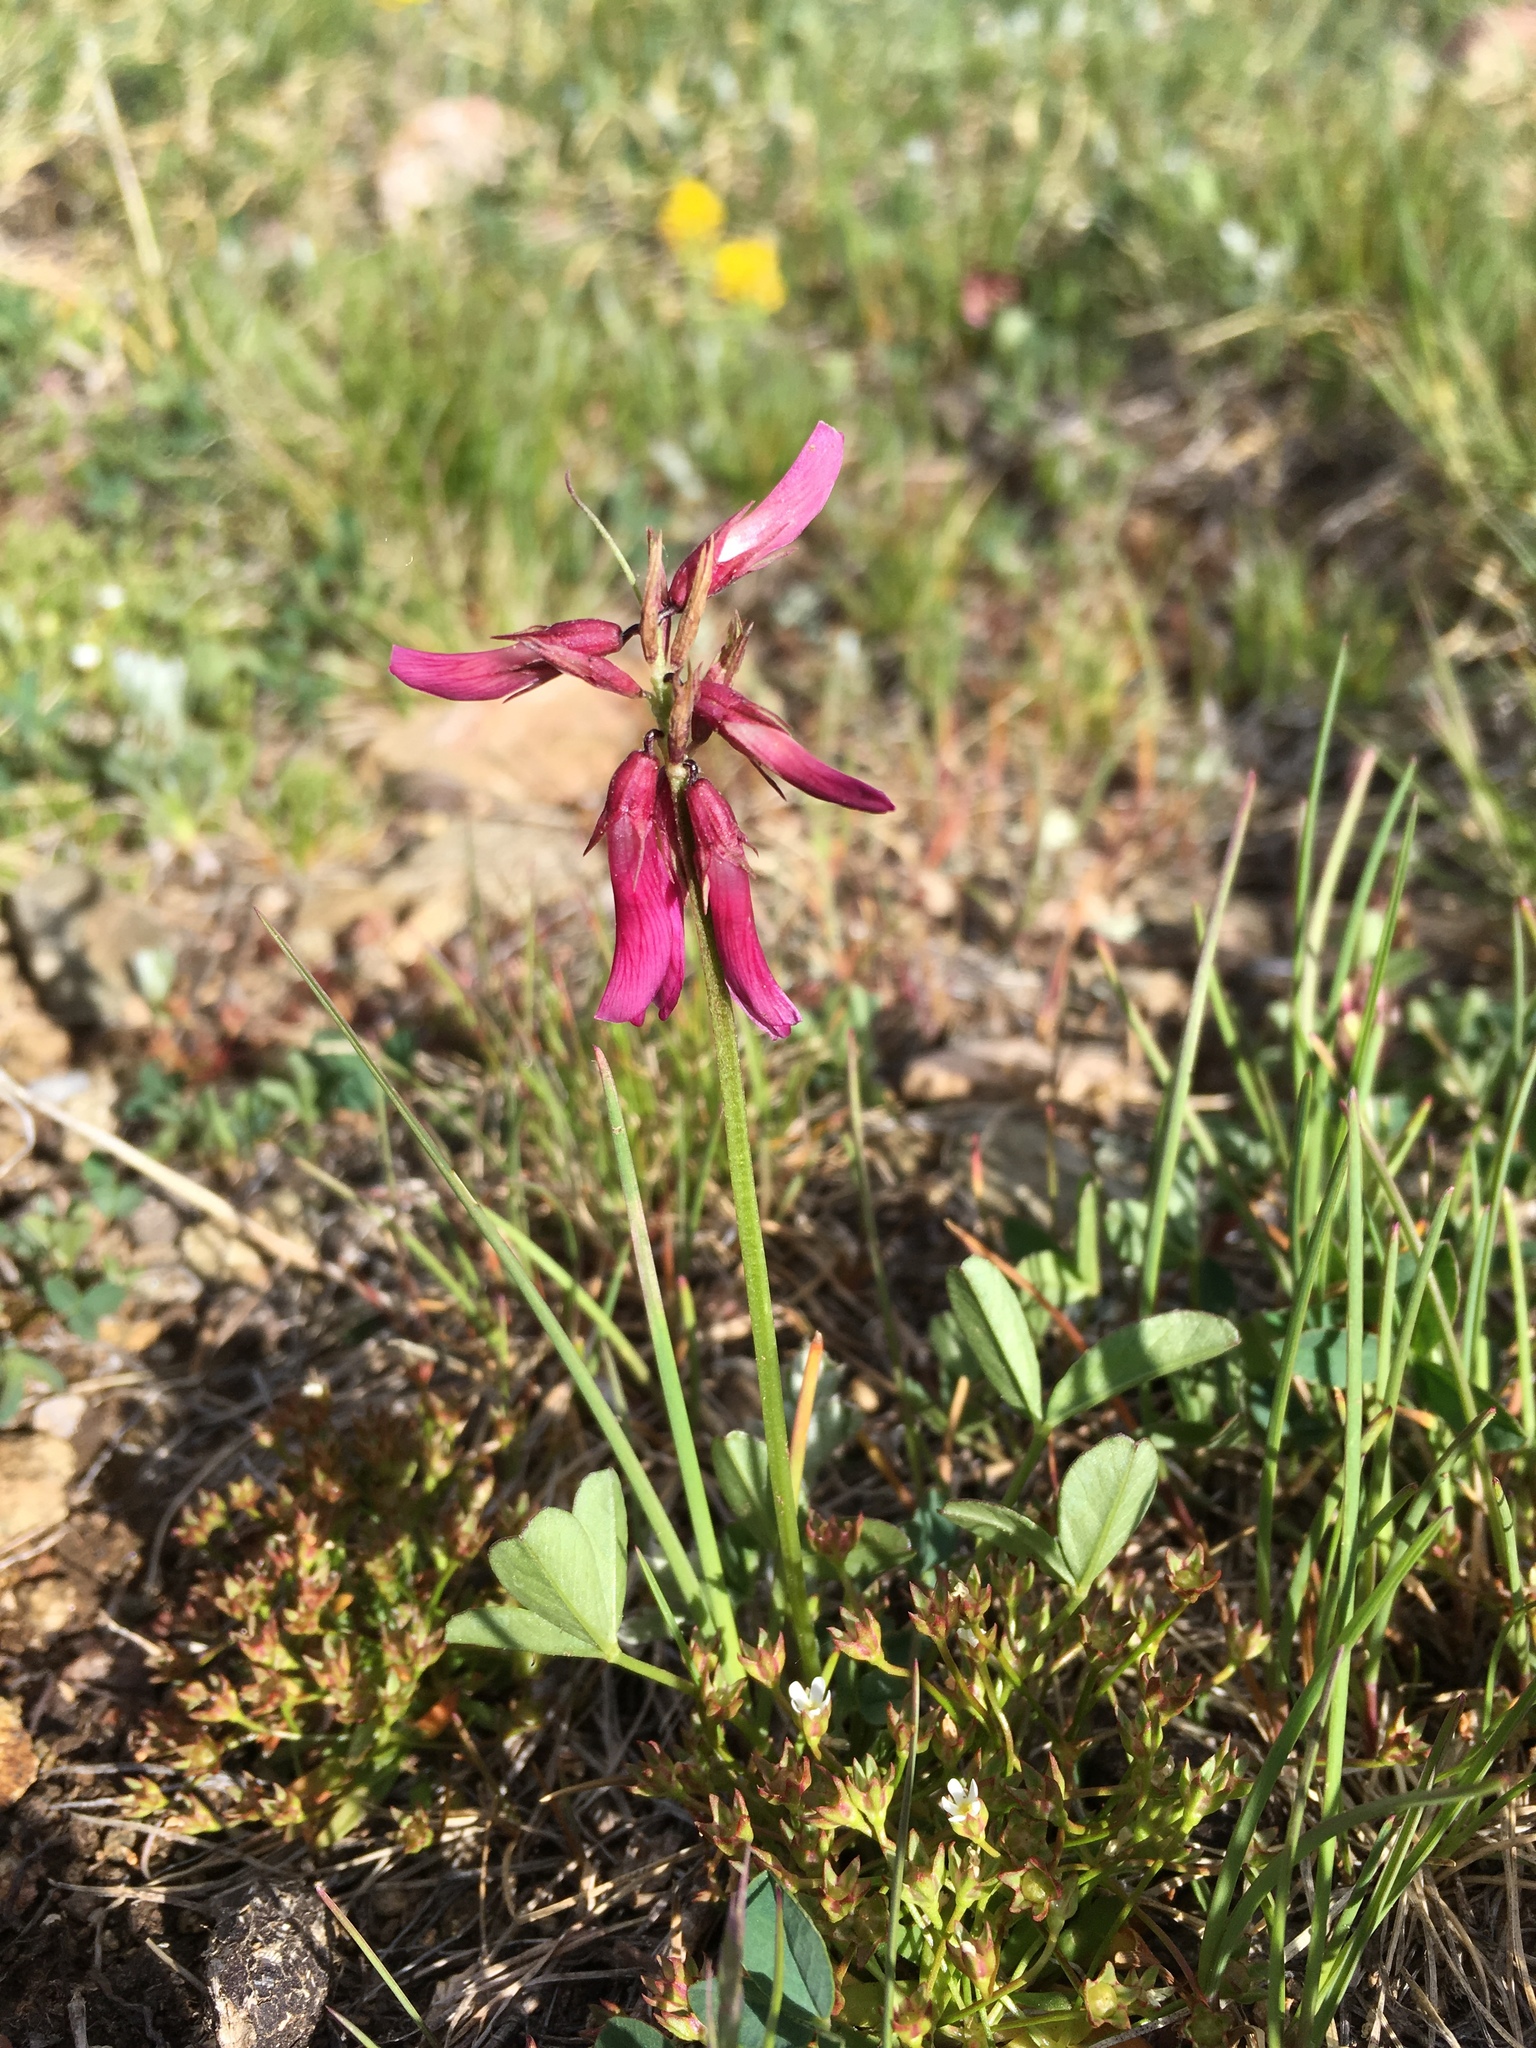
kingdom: Plantae
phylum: Tracheophyta
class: Magnoliopsida
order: Fabales
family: Fabaceae
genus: Trifolium
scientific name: Trifolium brandegeei
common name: Brandegee's clover
